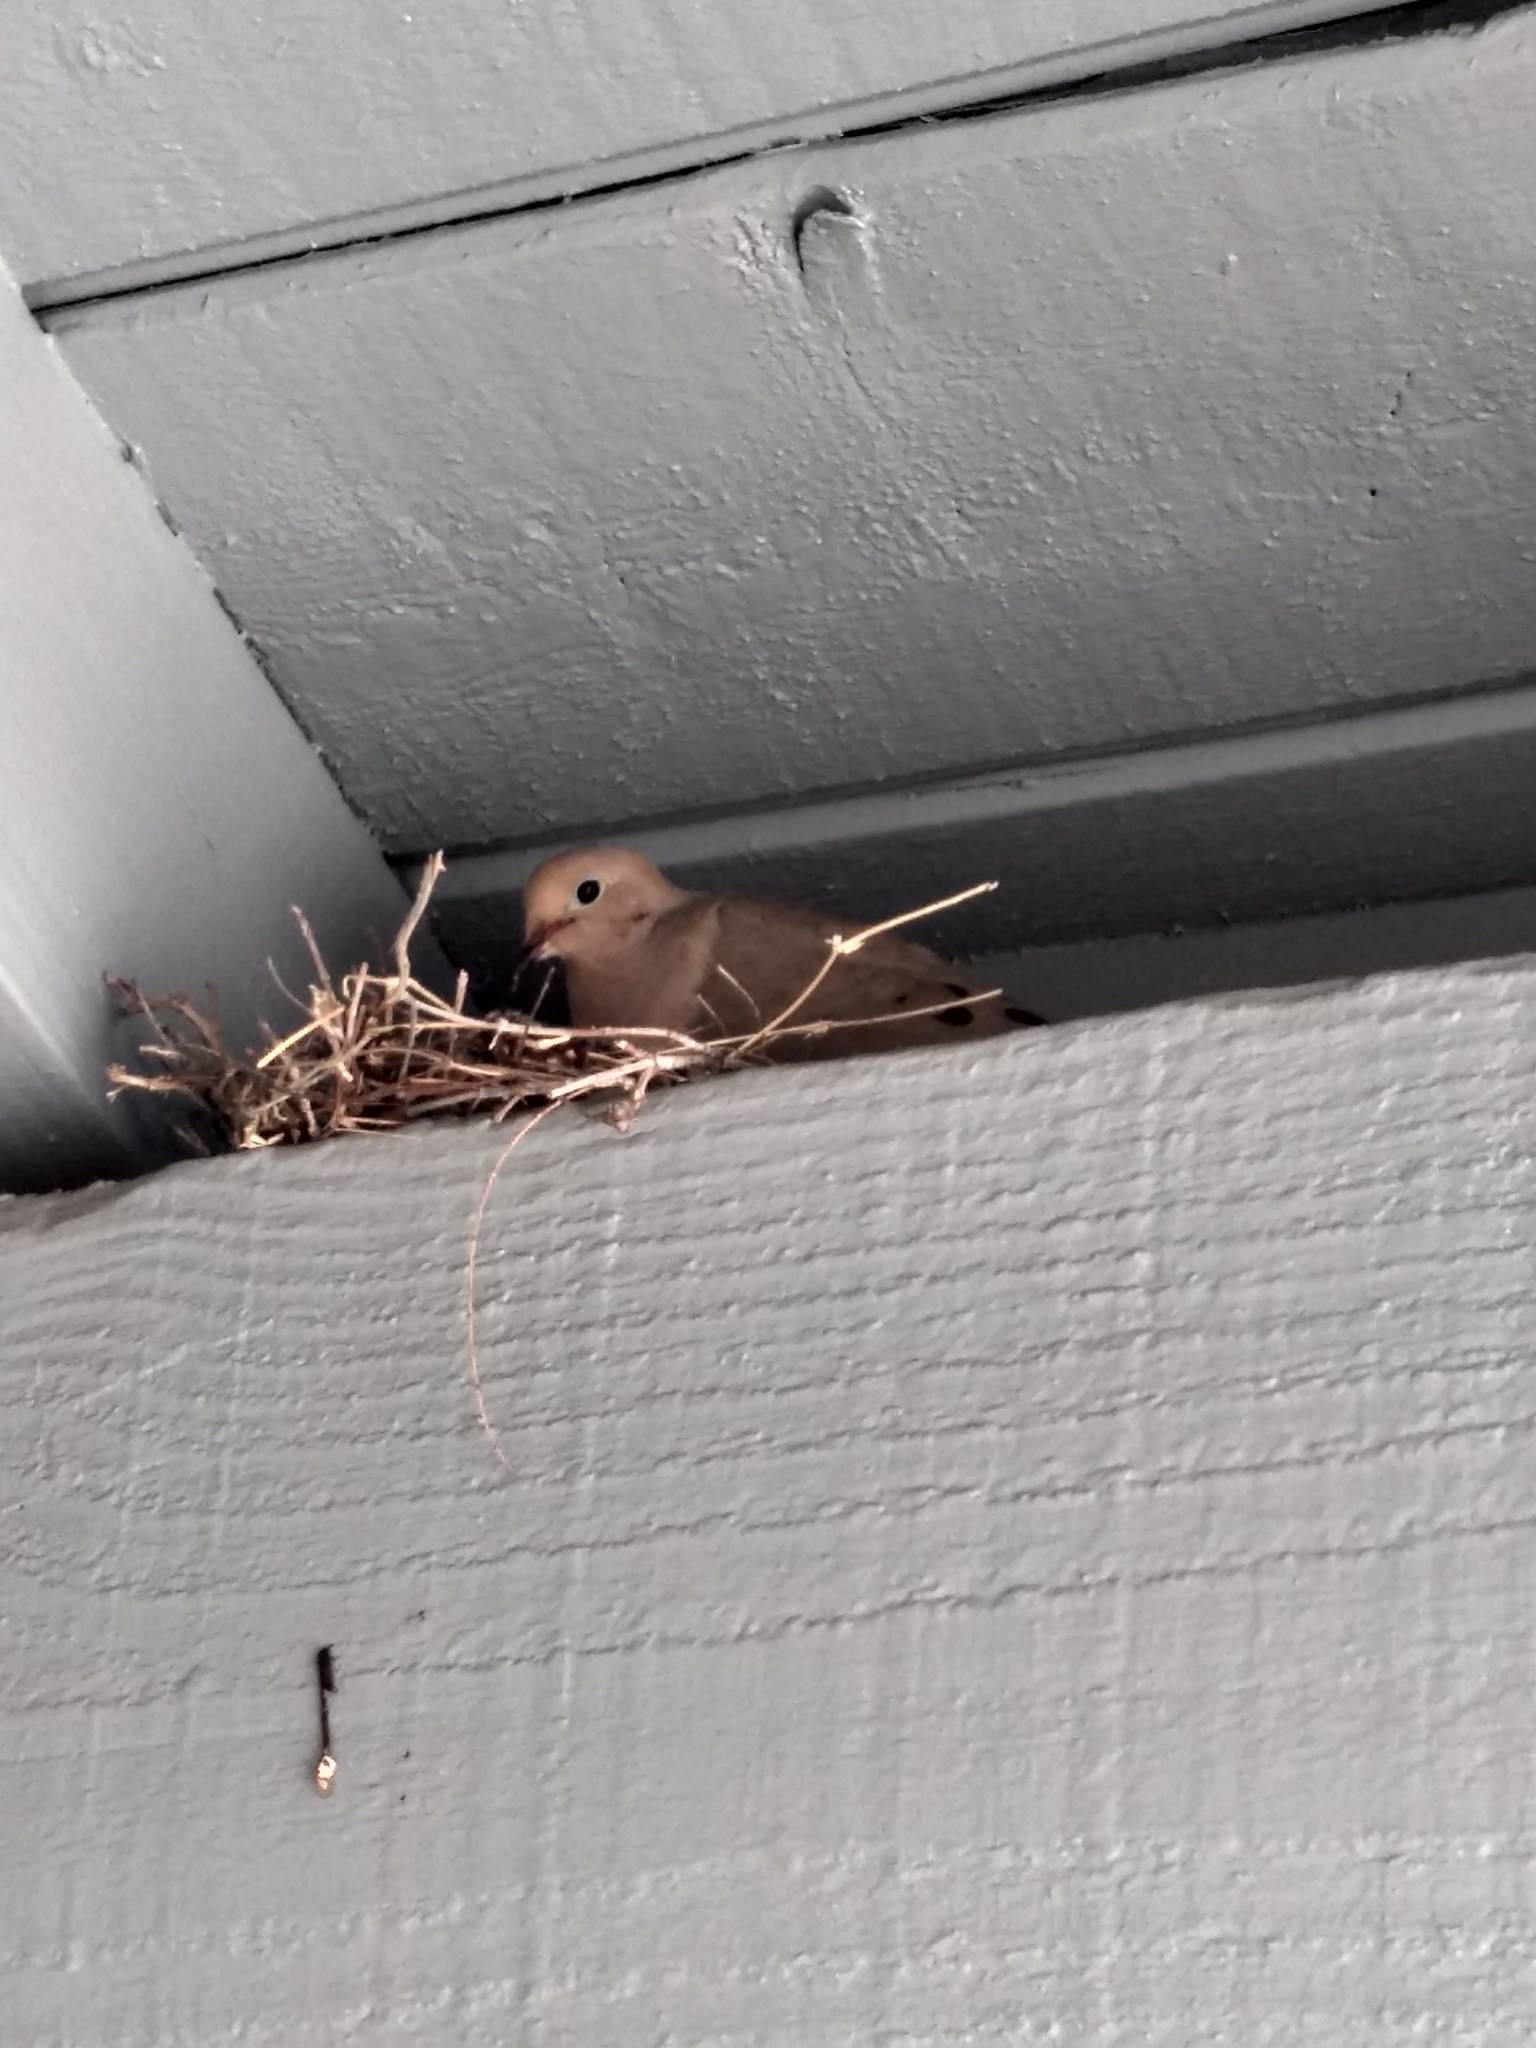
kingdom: Animalia
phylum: Chordata
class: Aves
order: Columbiformes
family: Columbidae
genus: Zenaida
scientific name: Zenaida macroura
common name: Mourning dove
